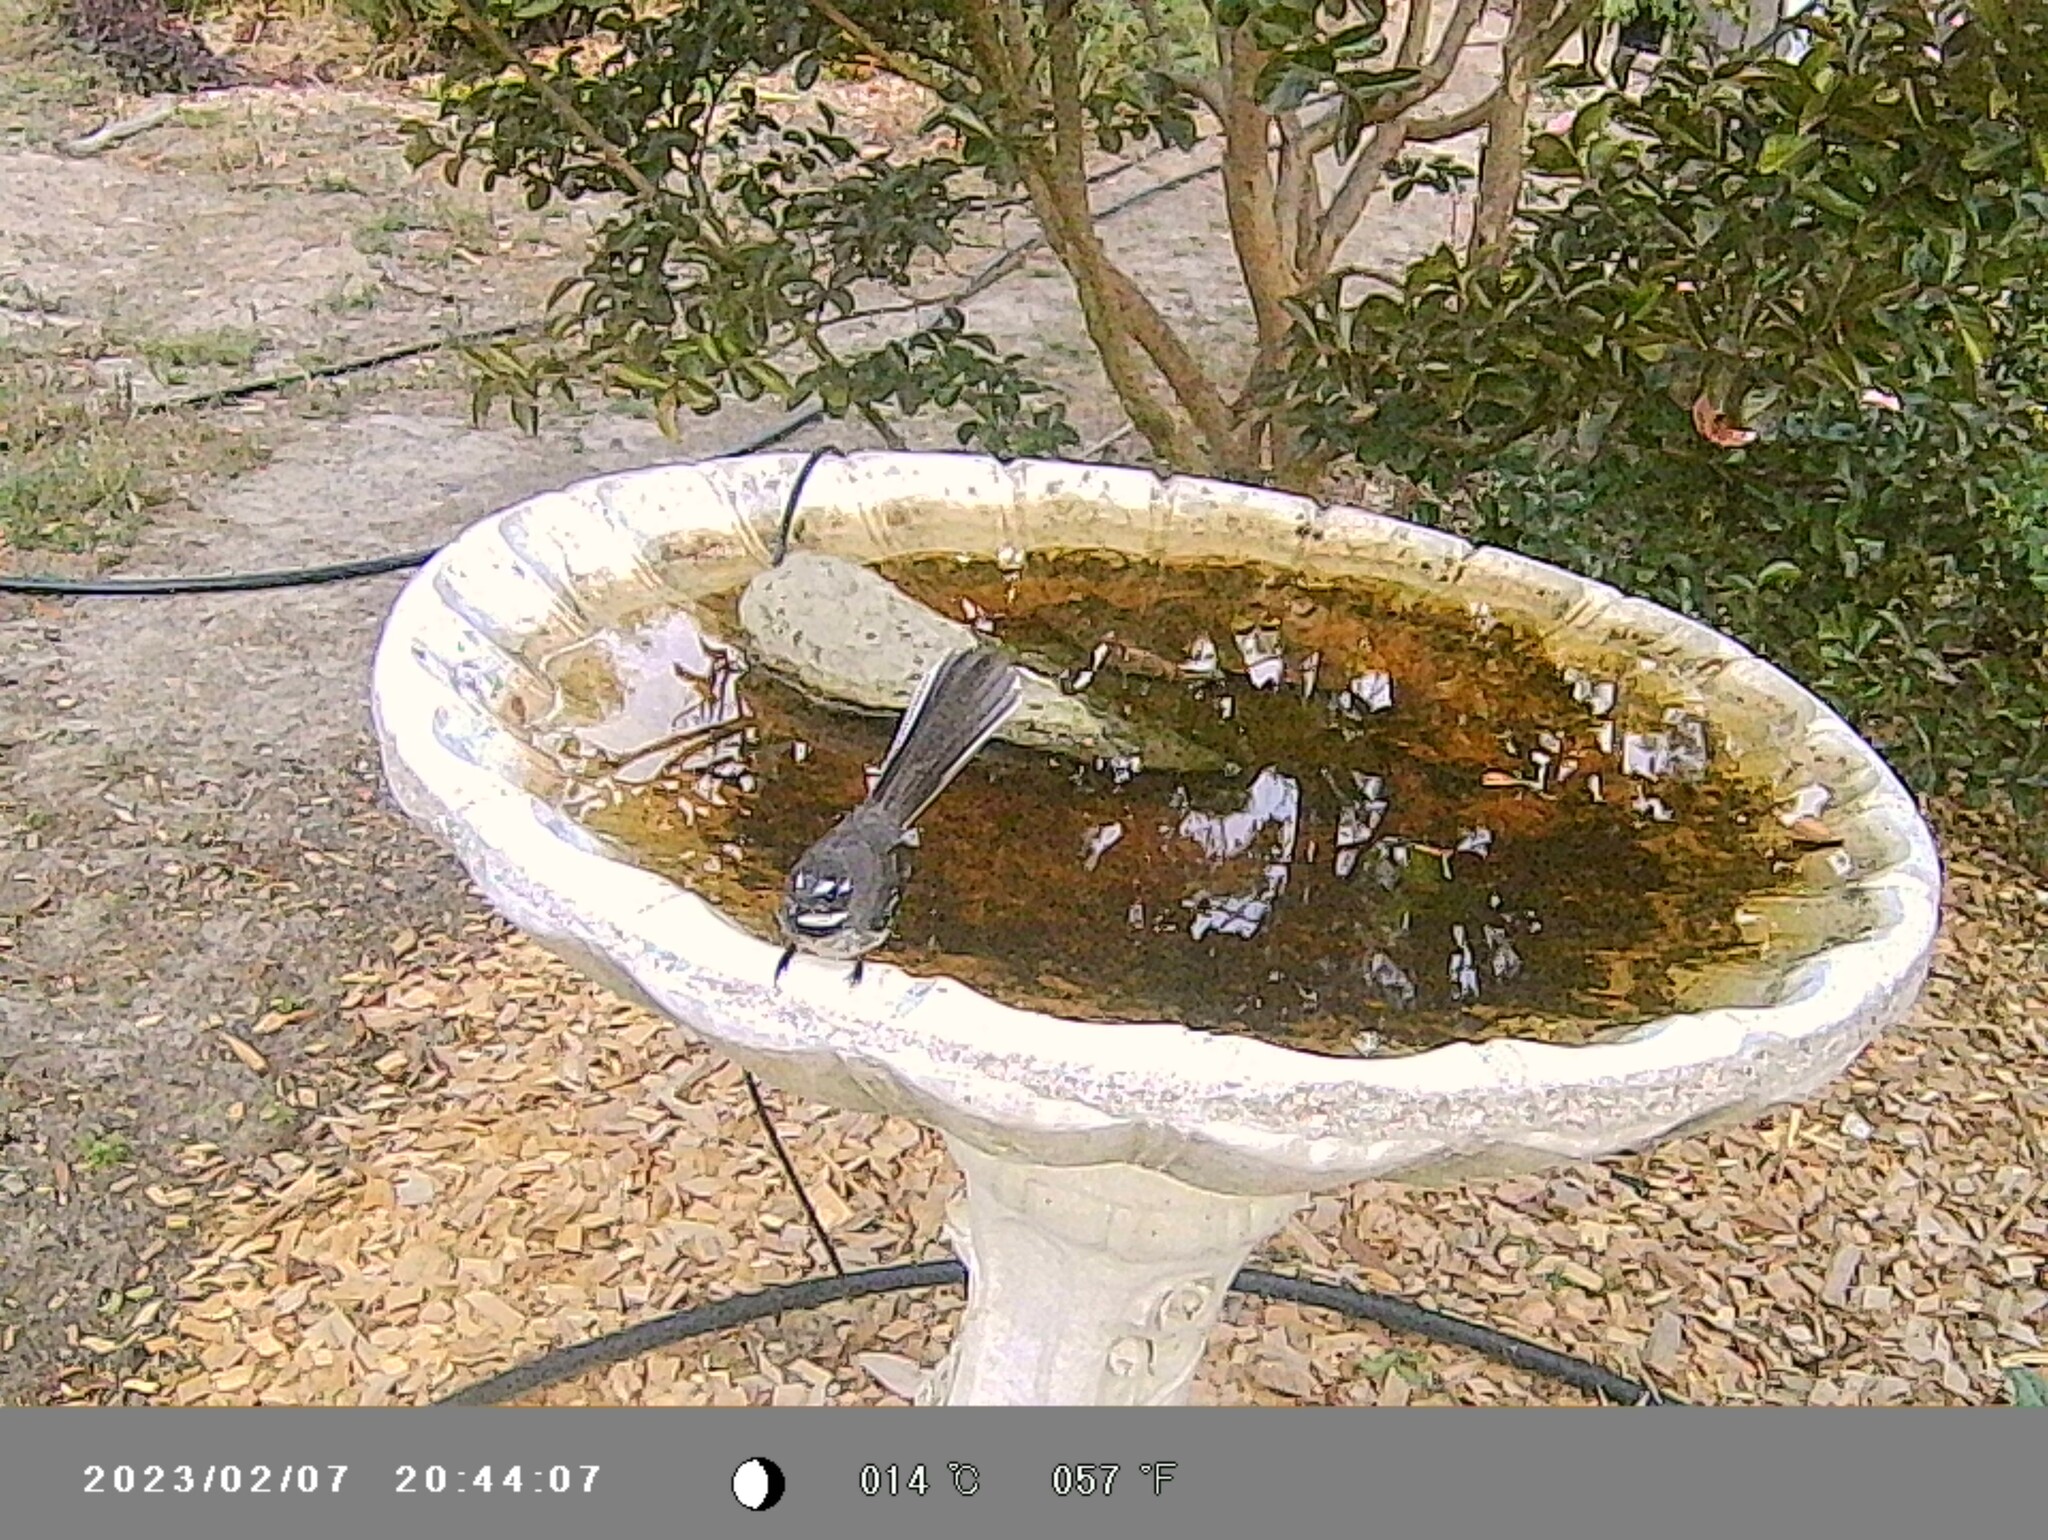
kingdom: Animalia
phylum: Chordata
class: Aves
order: Passeriformes
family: Rhipiduridae
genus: Rhipidura
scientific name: Rhipidura albiscapa
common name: Grey fantail
